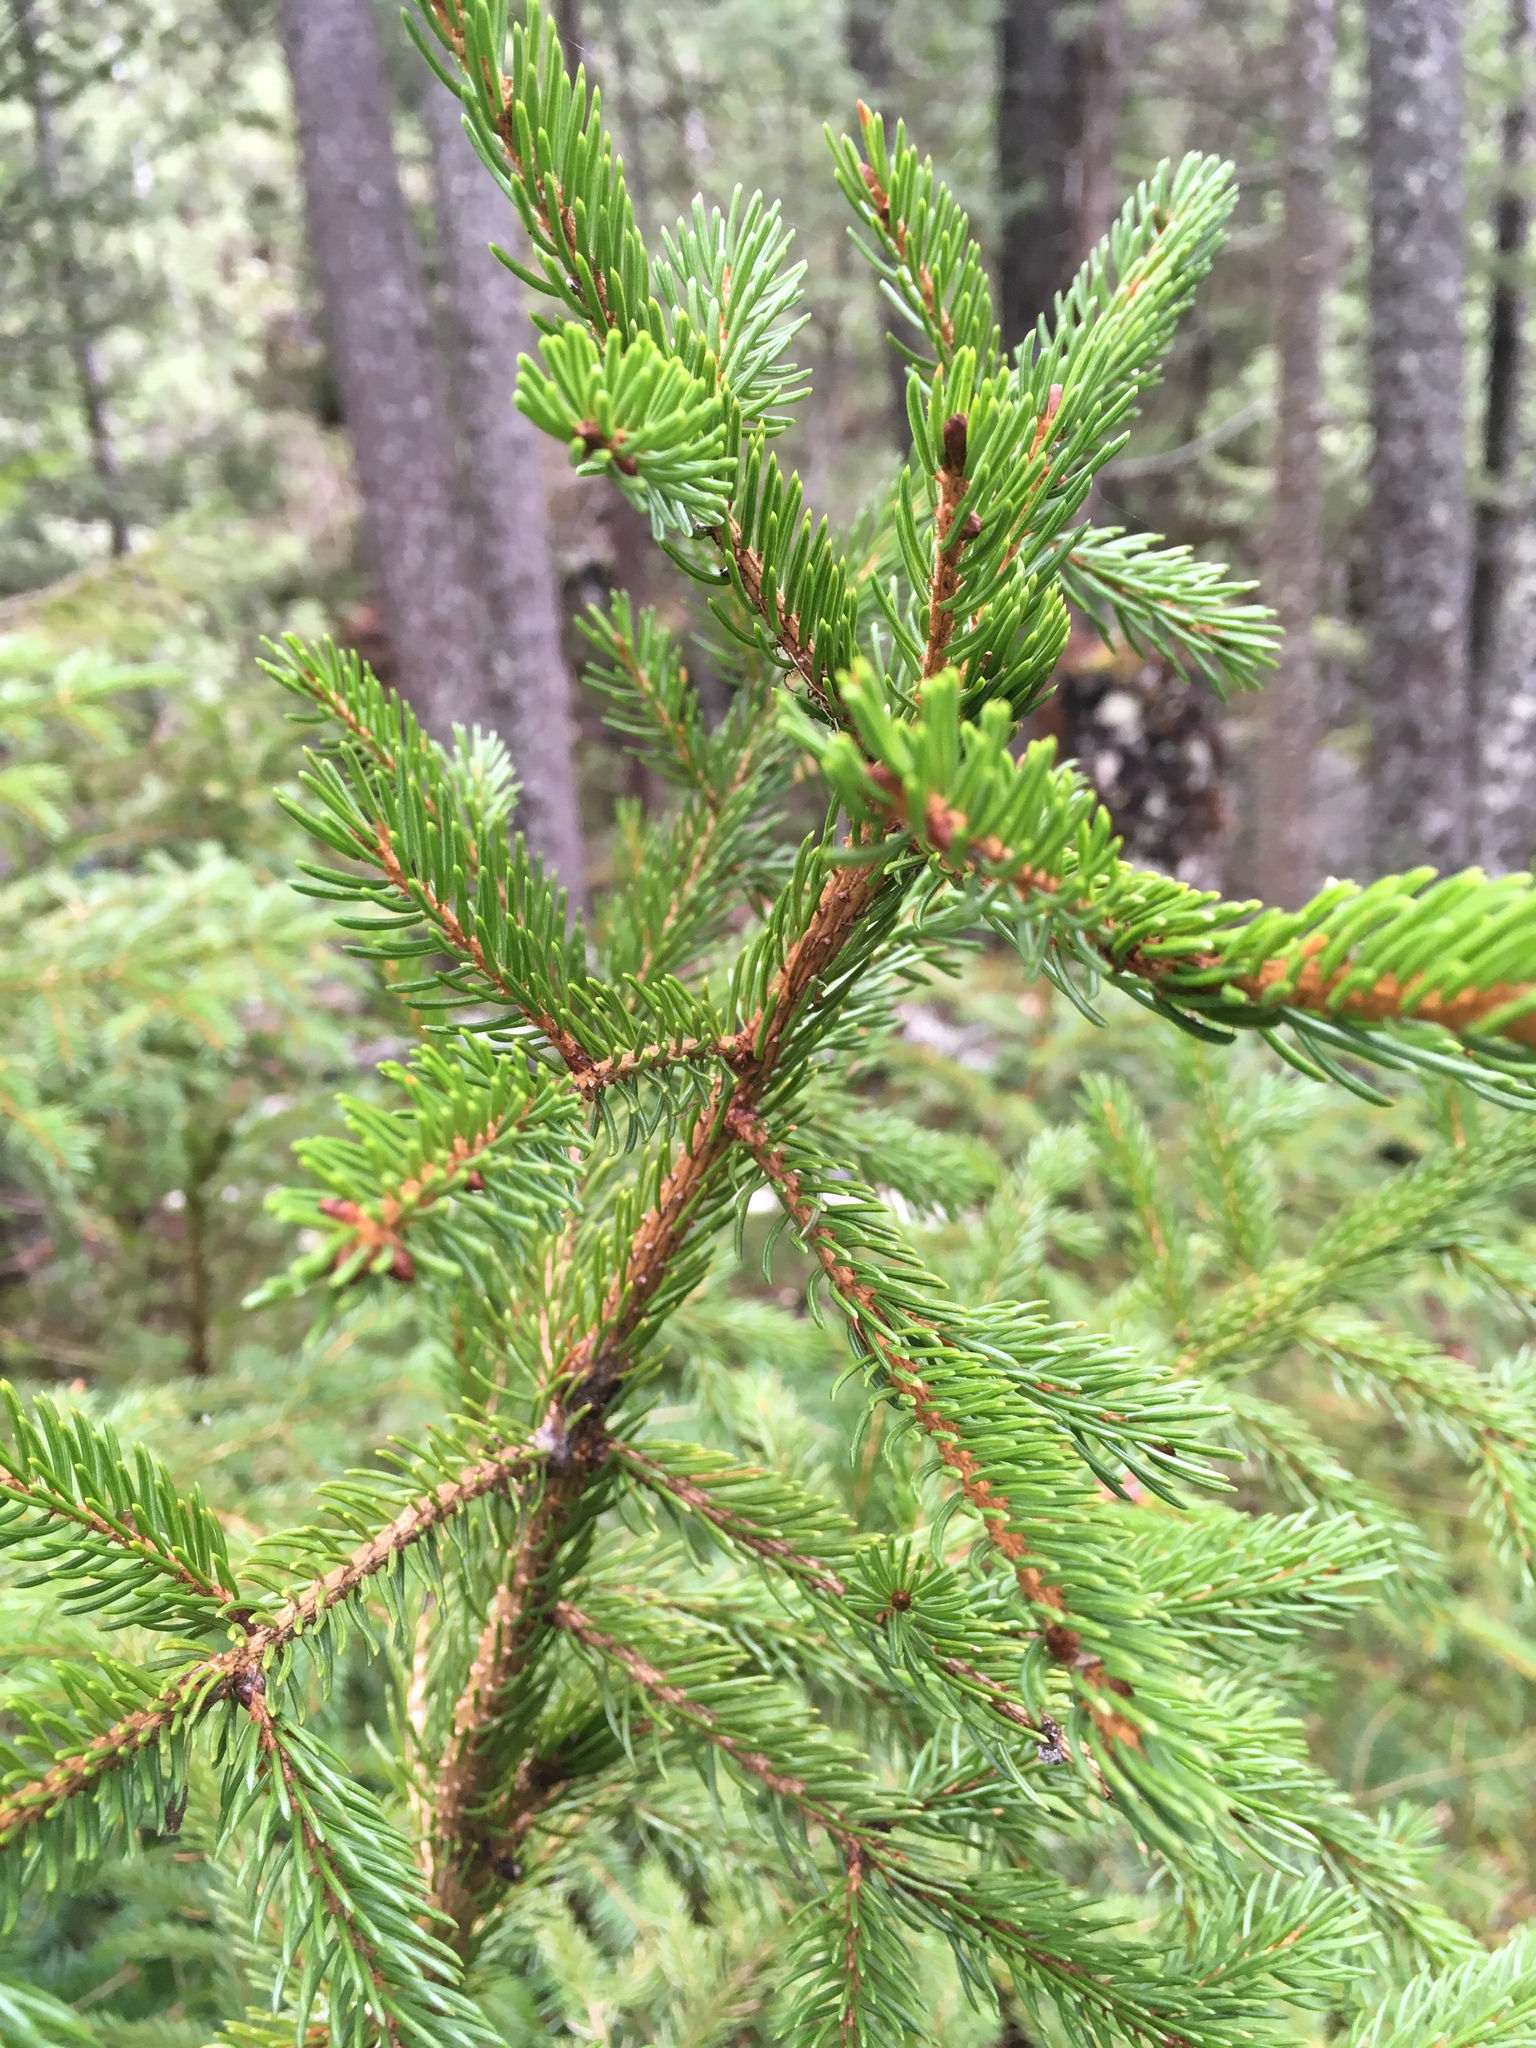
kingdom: Plantae
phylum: Tracheophyta
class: Pinopsida
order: Pinales
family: Pinaceae
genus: Picea
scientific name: Picea rubens
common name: Red spruce
